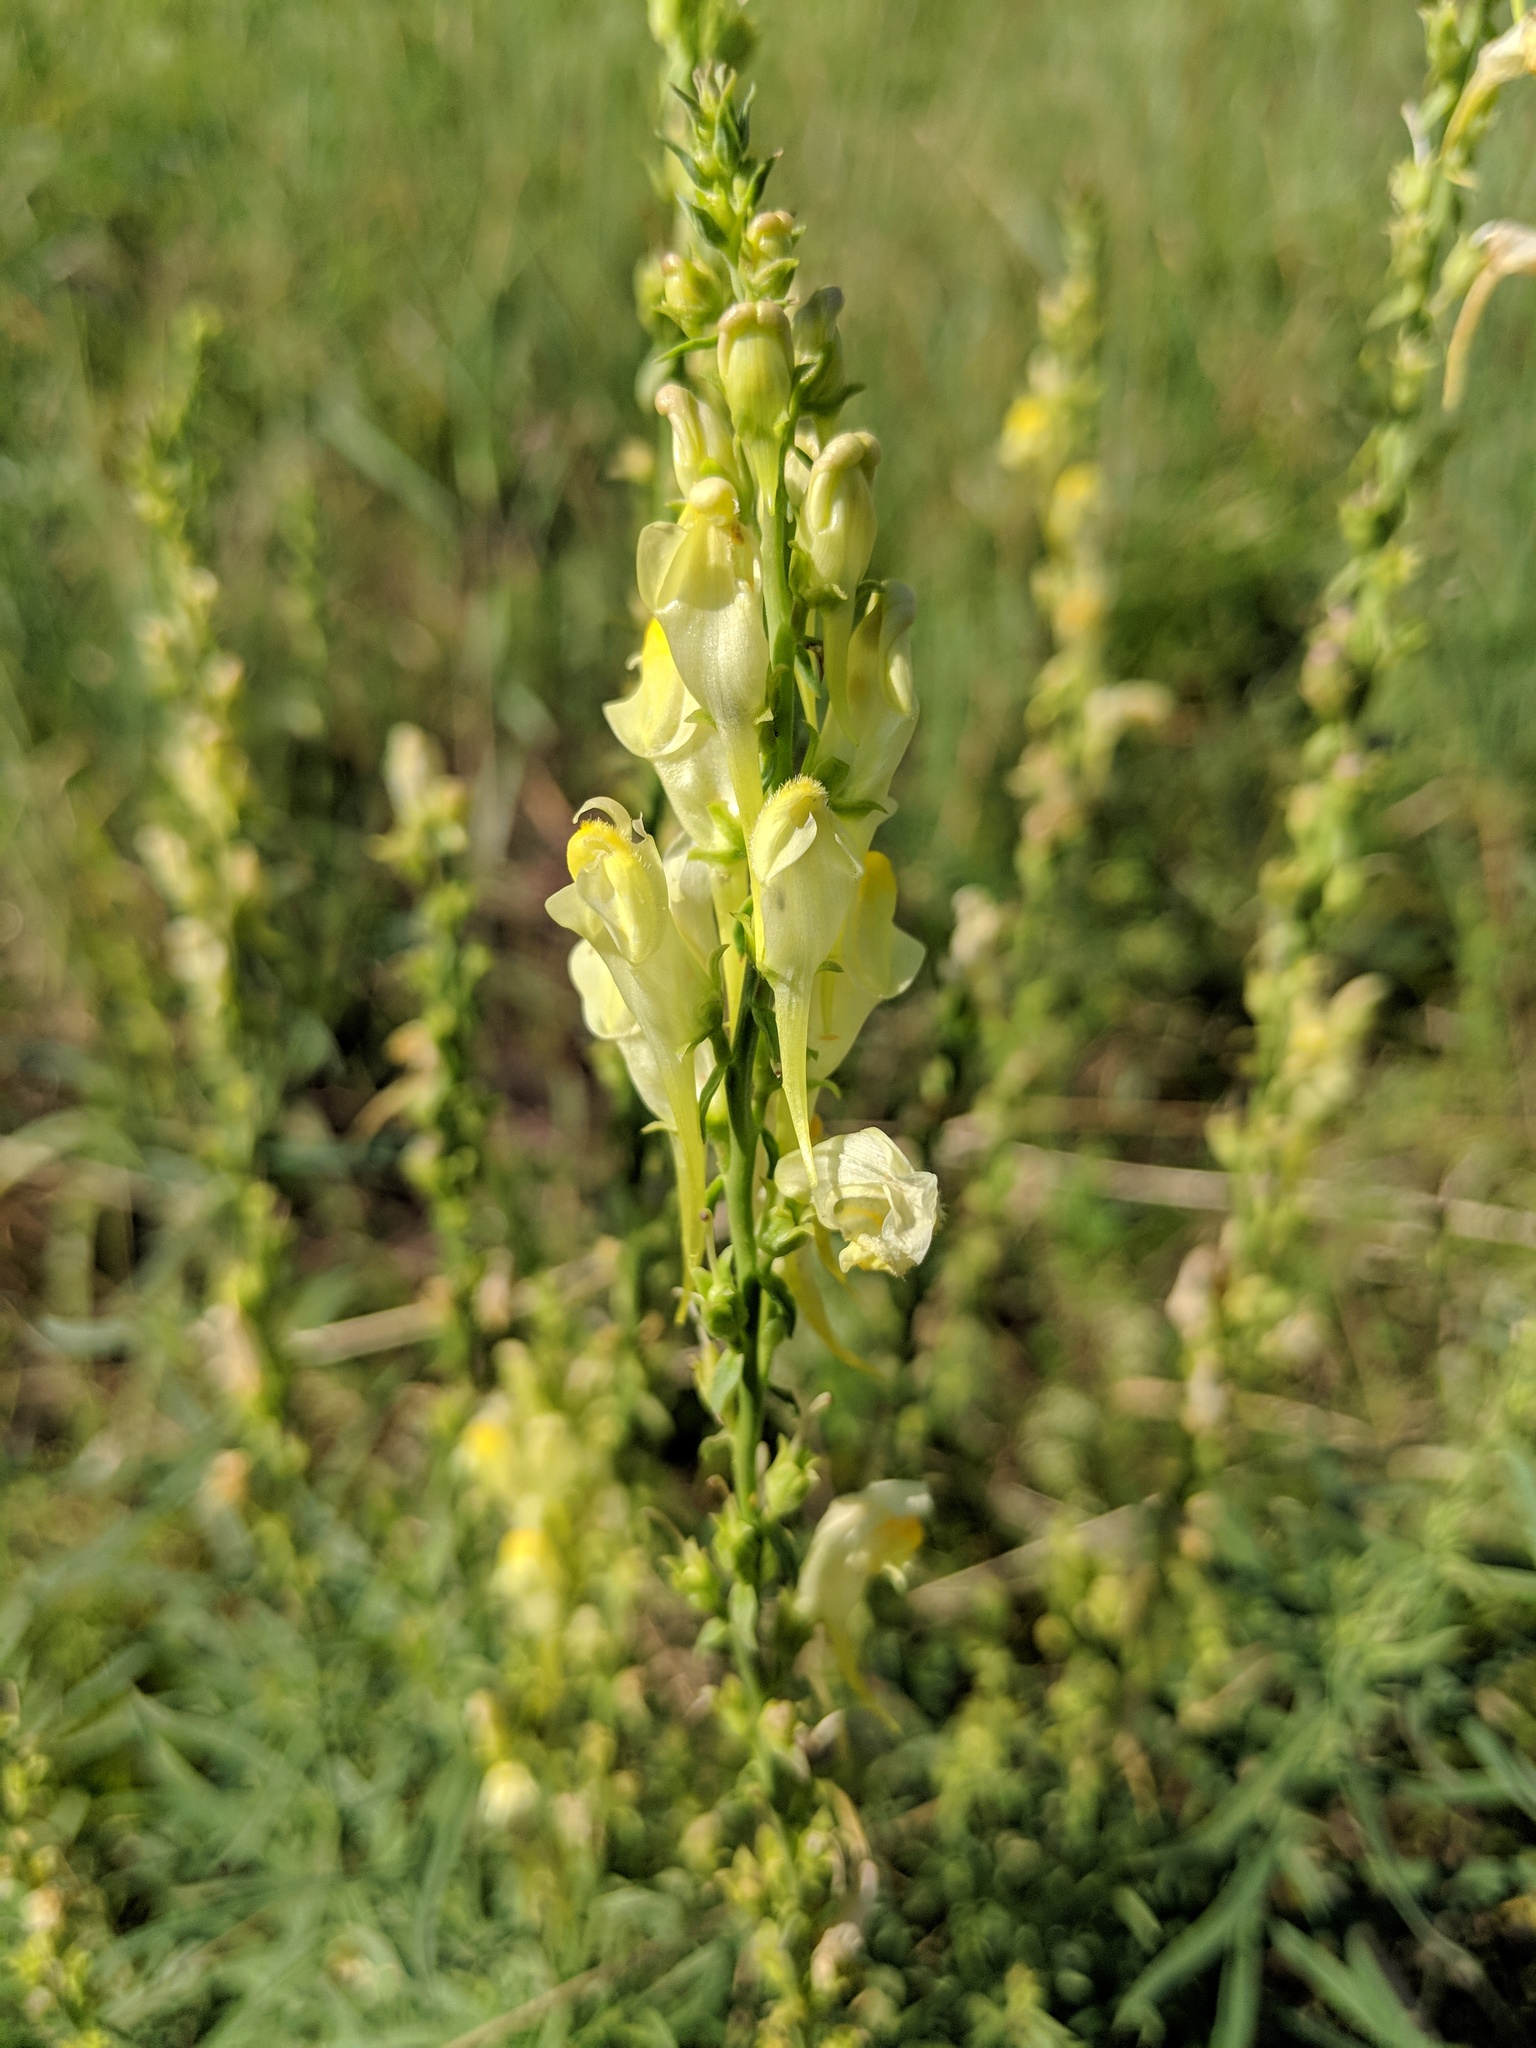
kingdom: Plantae
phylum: Tracheophyta
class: Magnoliopsida
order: Lamiales
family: Plantaginaceae
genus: Linaria
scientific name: Linaria vulgaris
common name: Butter and eggs
